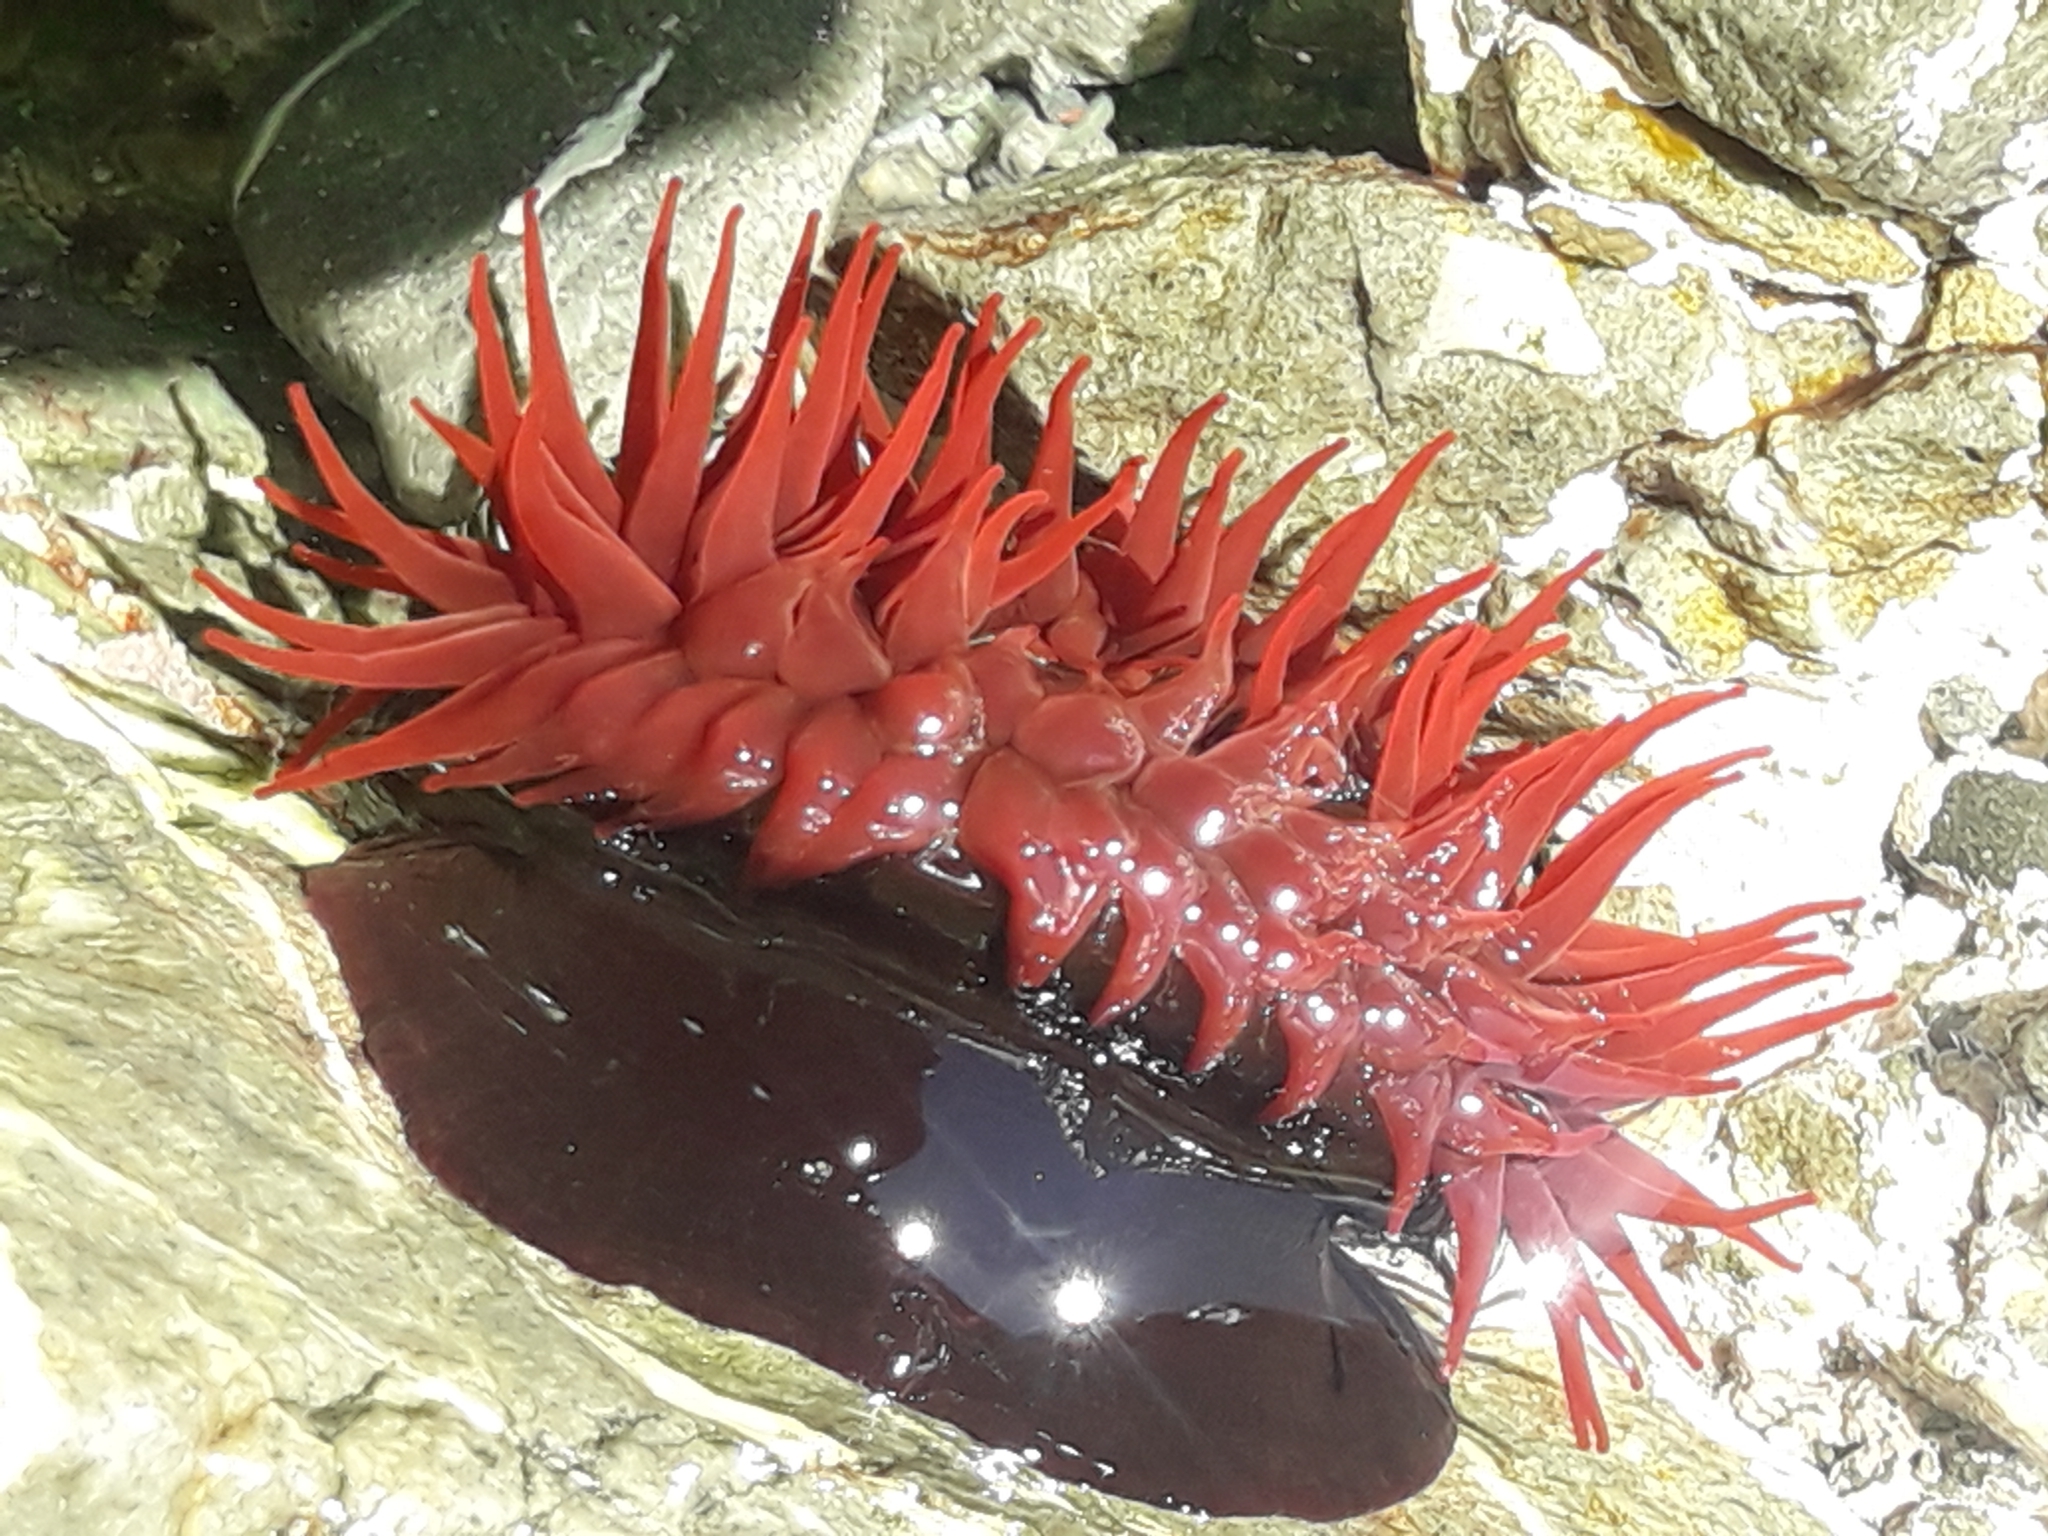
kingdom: Animalia
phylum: Cnidaria
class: Anthozoa
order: Actiniaria
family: Actiniidae
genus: Actinia
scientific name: Actinia tenebrosa
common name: Waratah anemone
